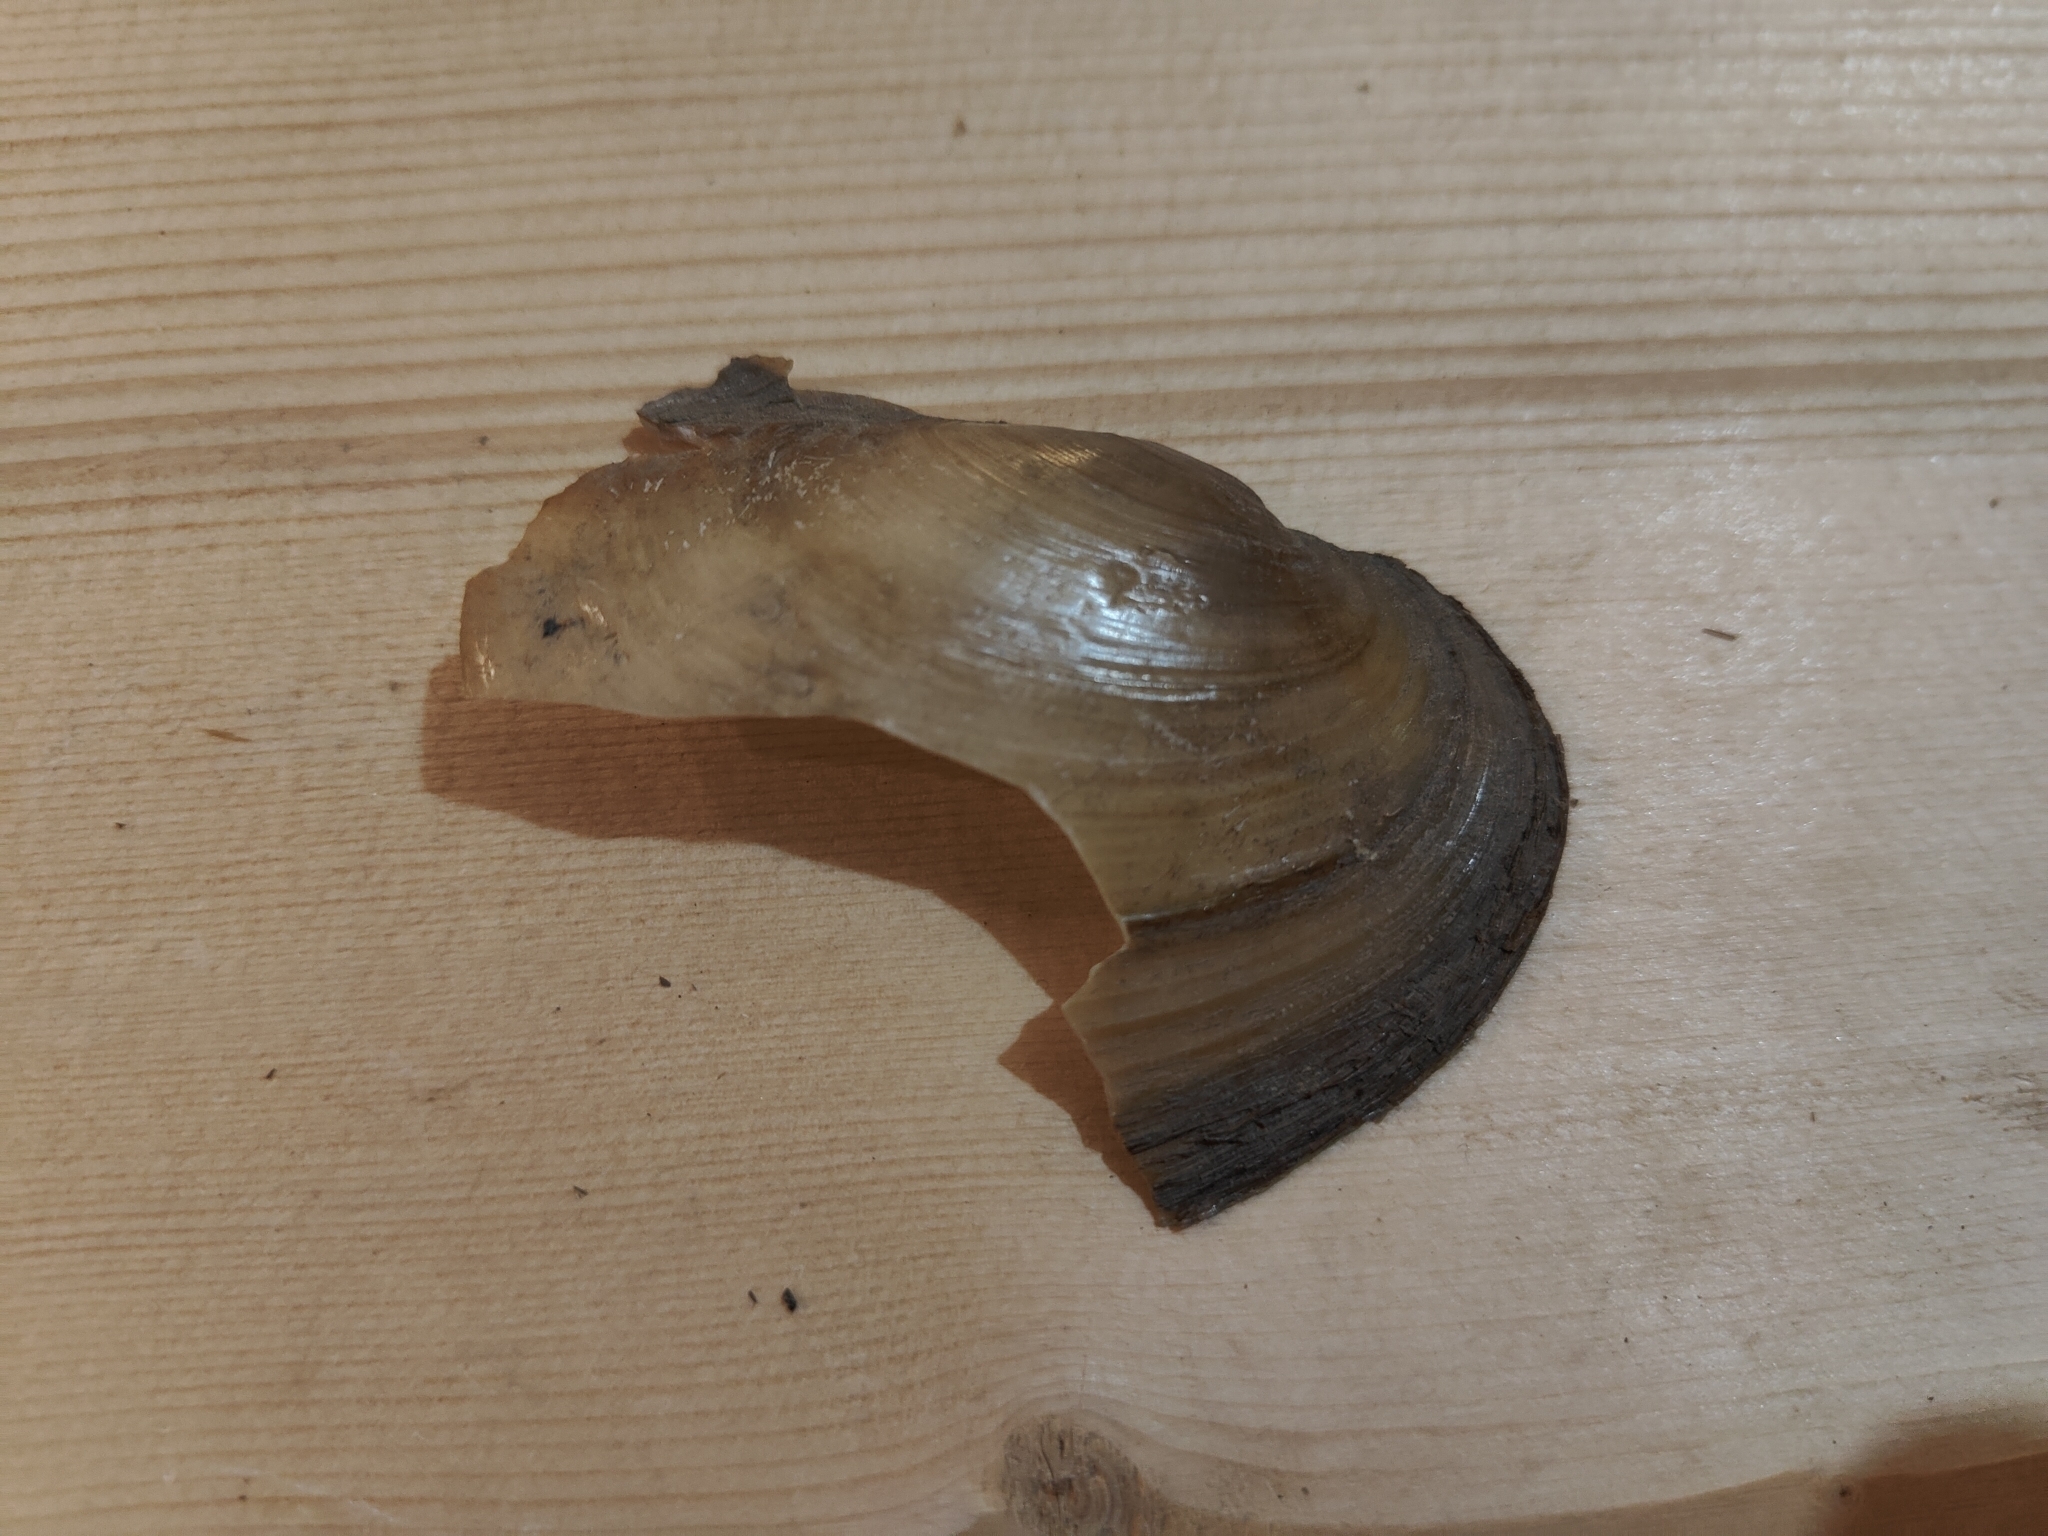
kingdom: Animalia
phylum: Mollusca
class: Bivalvia
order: Unionida
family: Unionidae
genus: Potamilus
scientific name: Potamilus fragilis
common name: Fragile papershell
